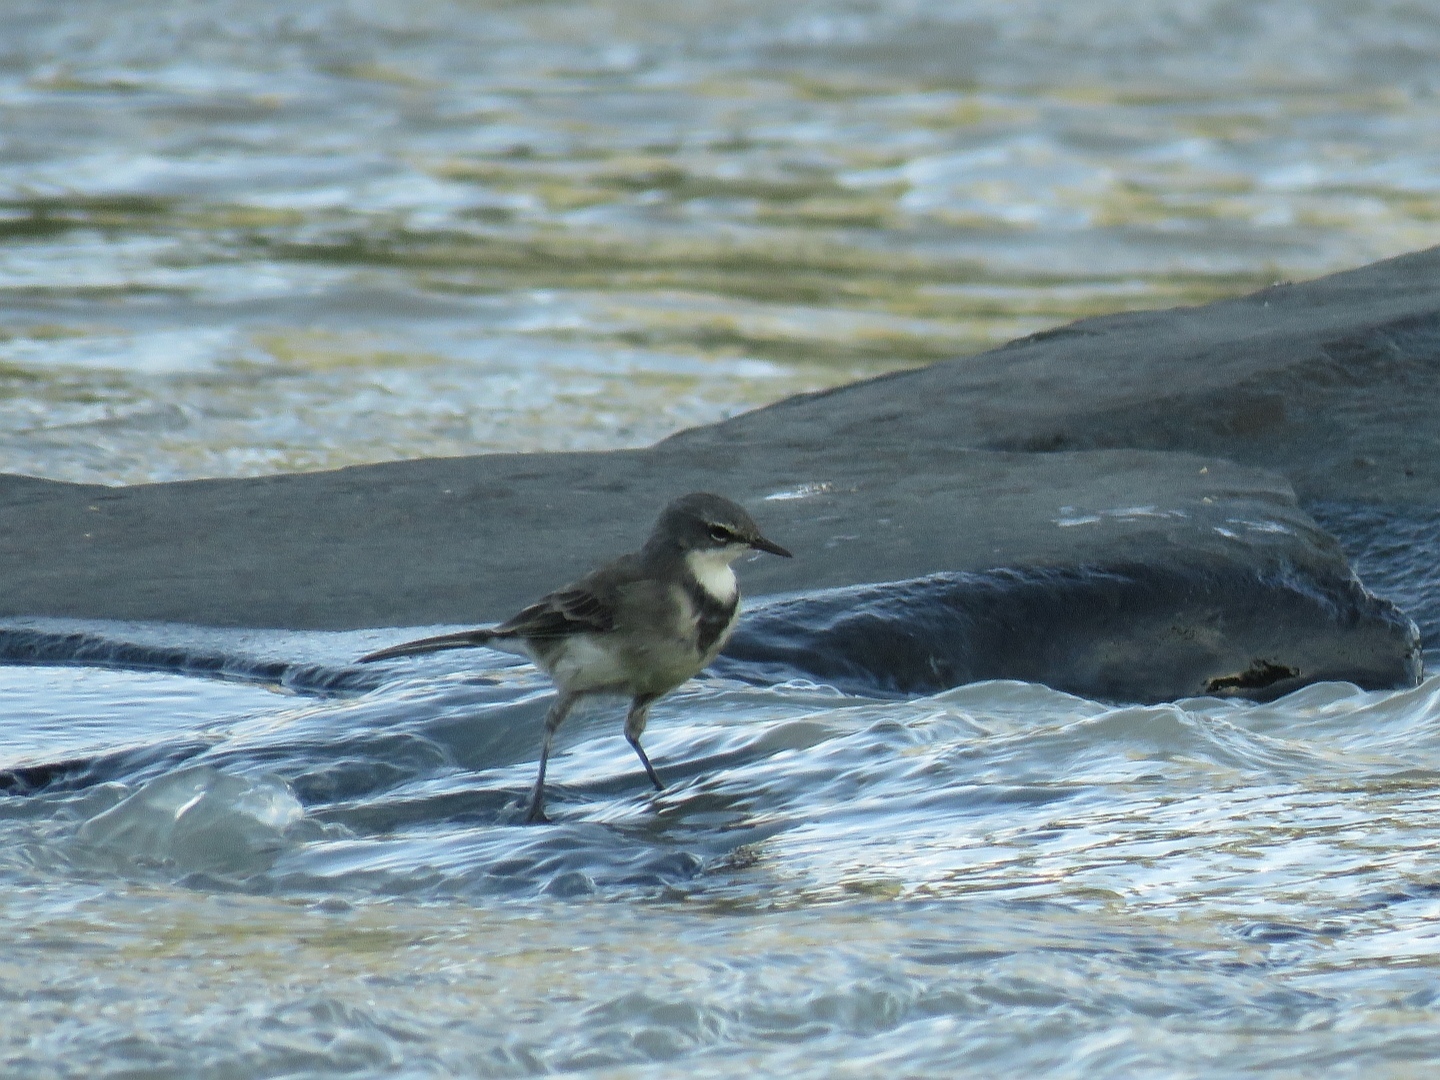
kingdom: Animalia
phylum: Chordata
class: Aves
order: Passeriformes
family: Motacillidae
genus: Motacilla
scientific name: Motacilla capensis
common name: Cape wagtail
